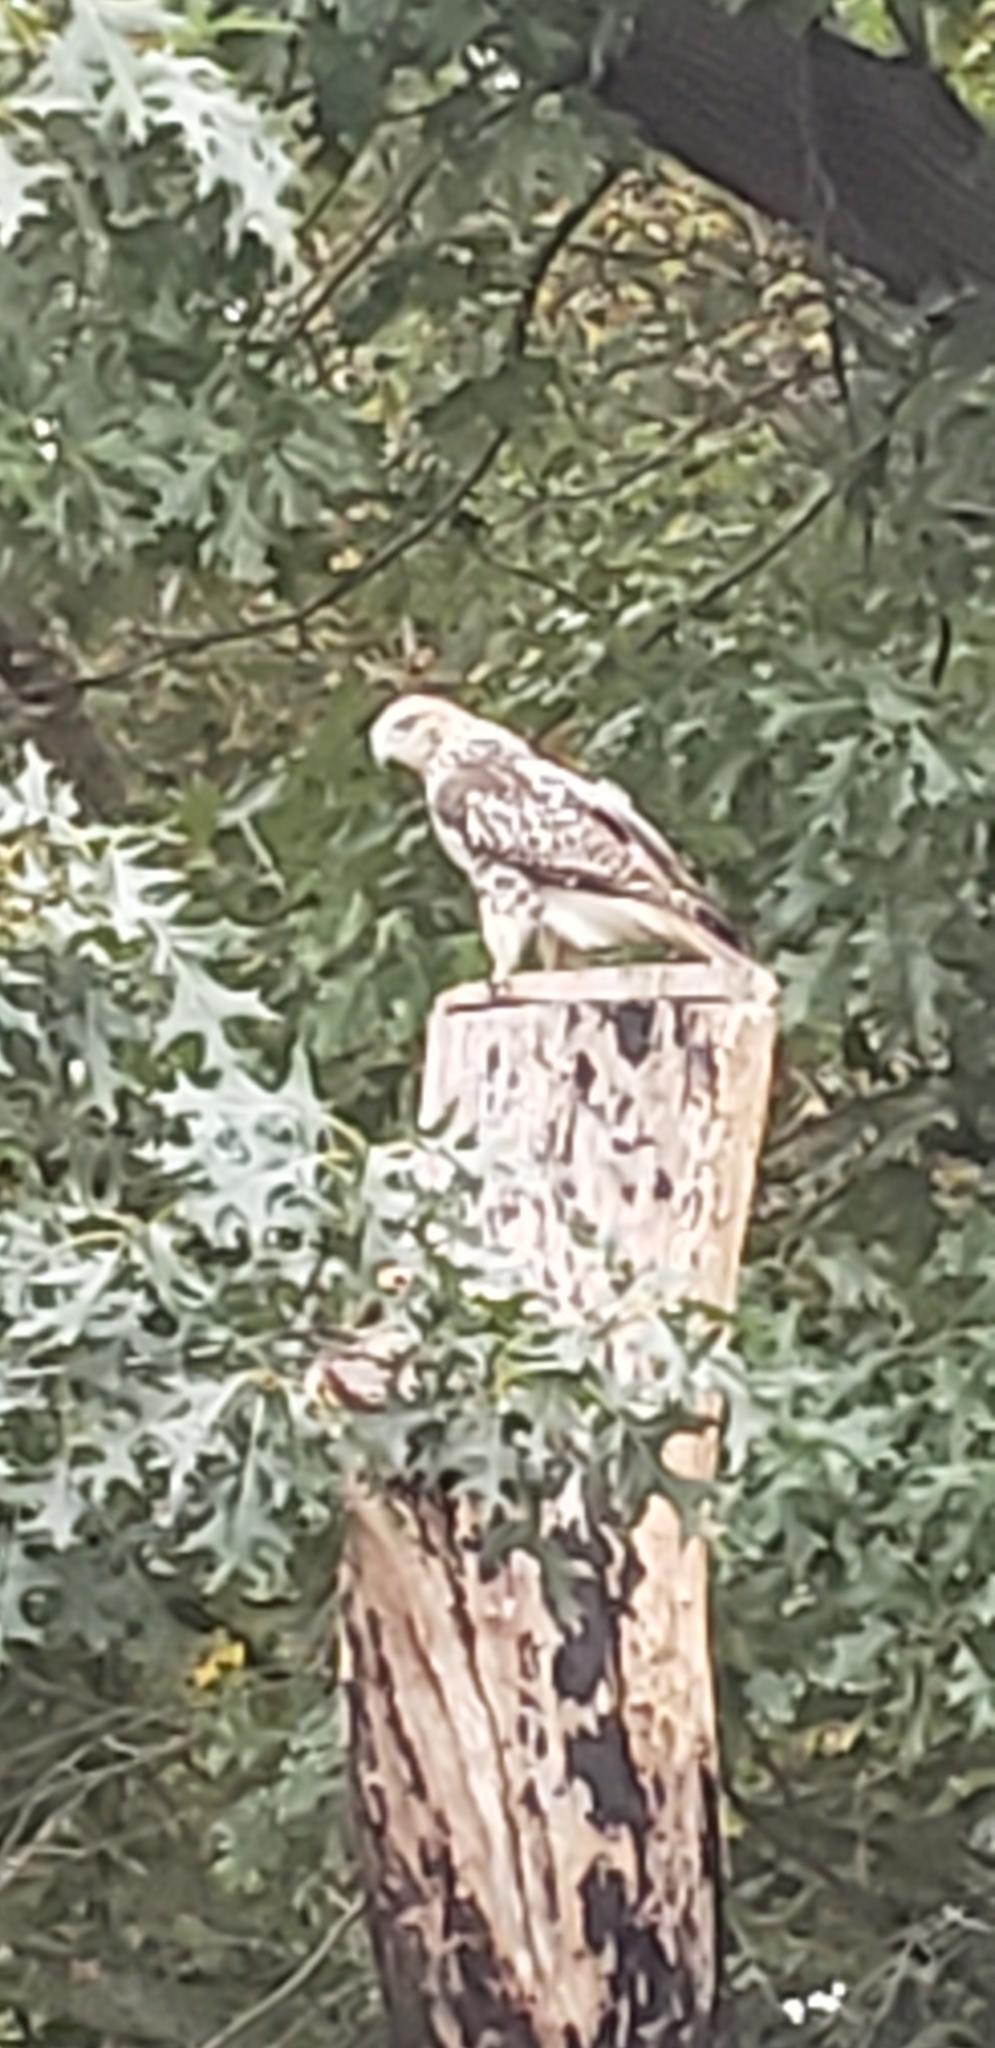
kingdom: Animalia
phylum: Chordata
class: Aves
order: Accipitriformes
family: Accipitridae
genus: Buteo
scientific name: Buteo jamaicensis
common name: Red-tailed hawk
